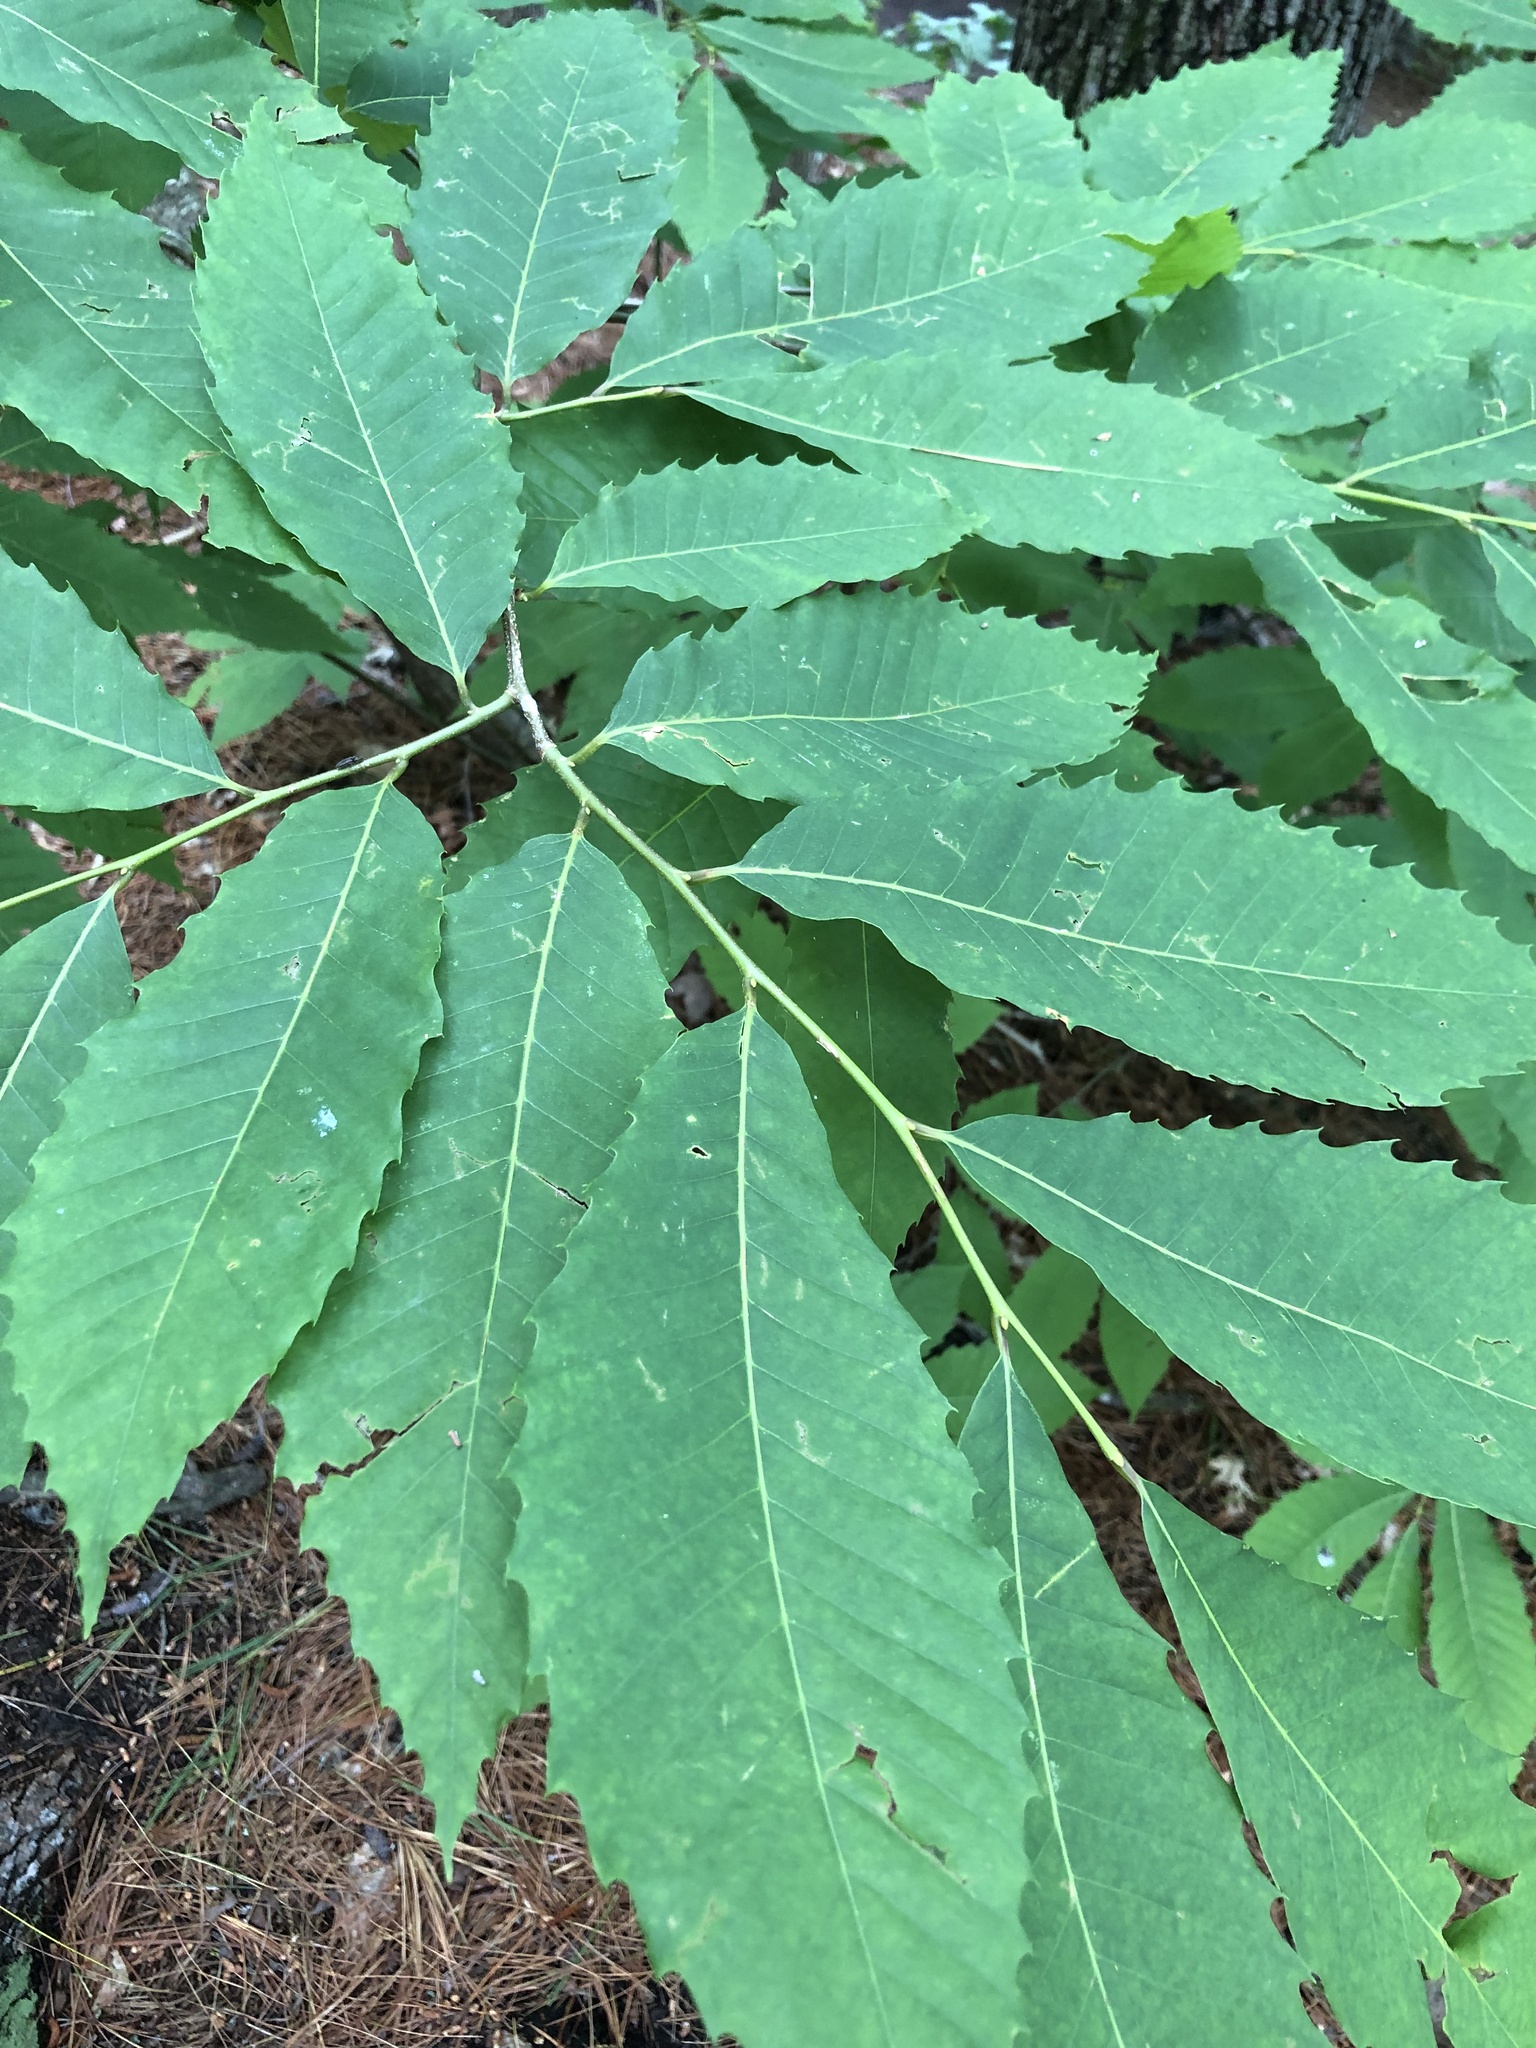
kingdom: Plantae
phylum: Tracheophyta
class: Magnoliopsida
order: Fagales
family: Fagaceae
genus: Castanea
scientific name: Castanea dentata
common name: American chestnut
